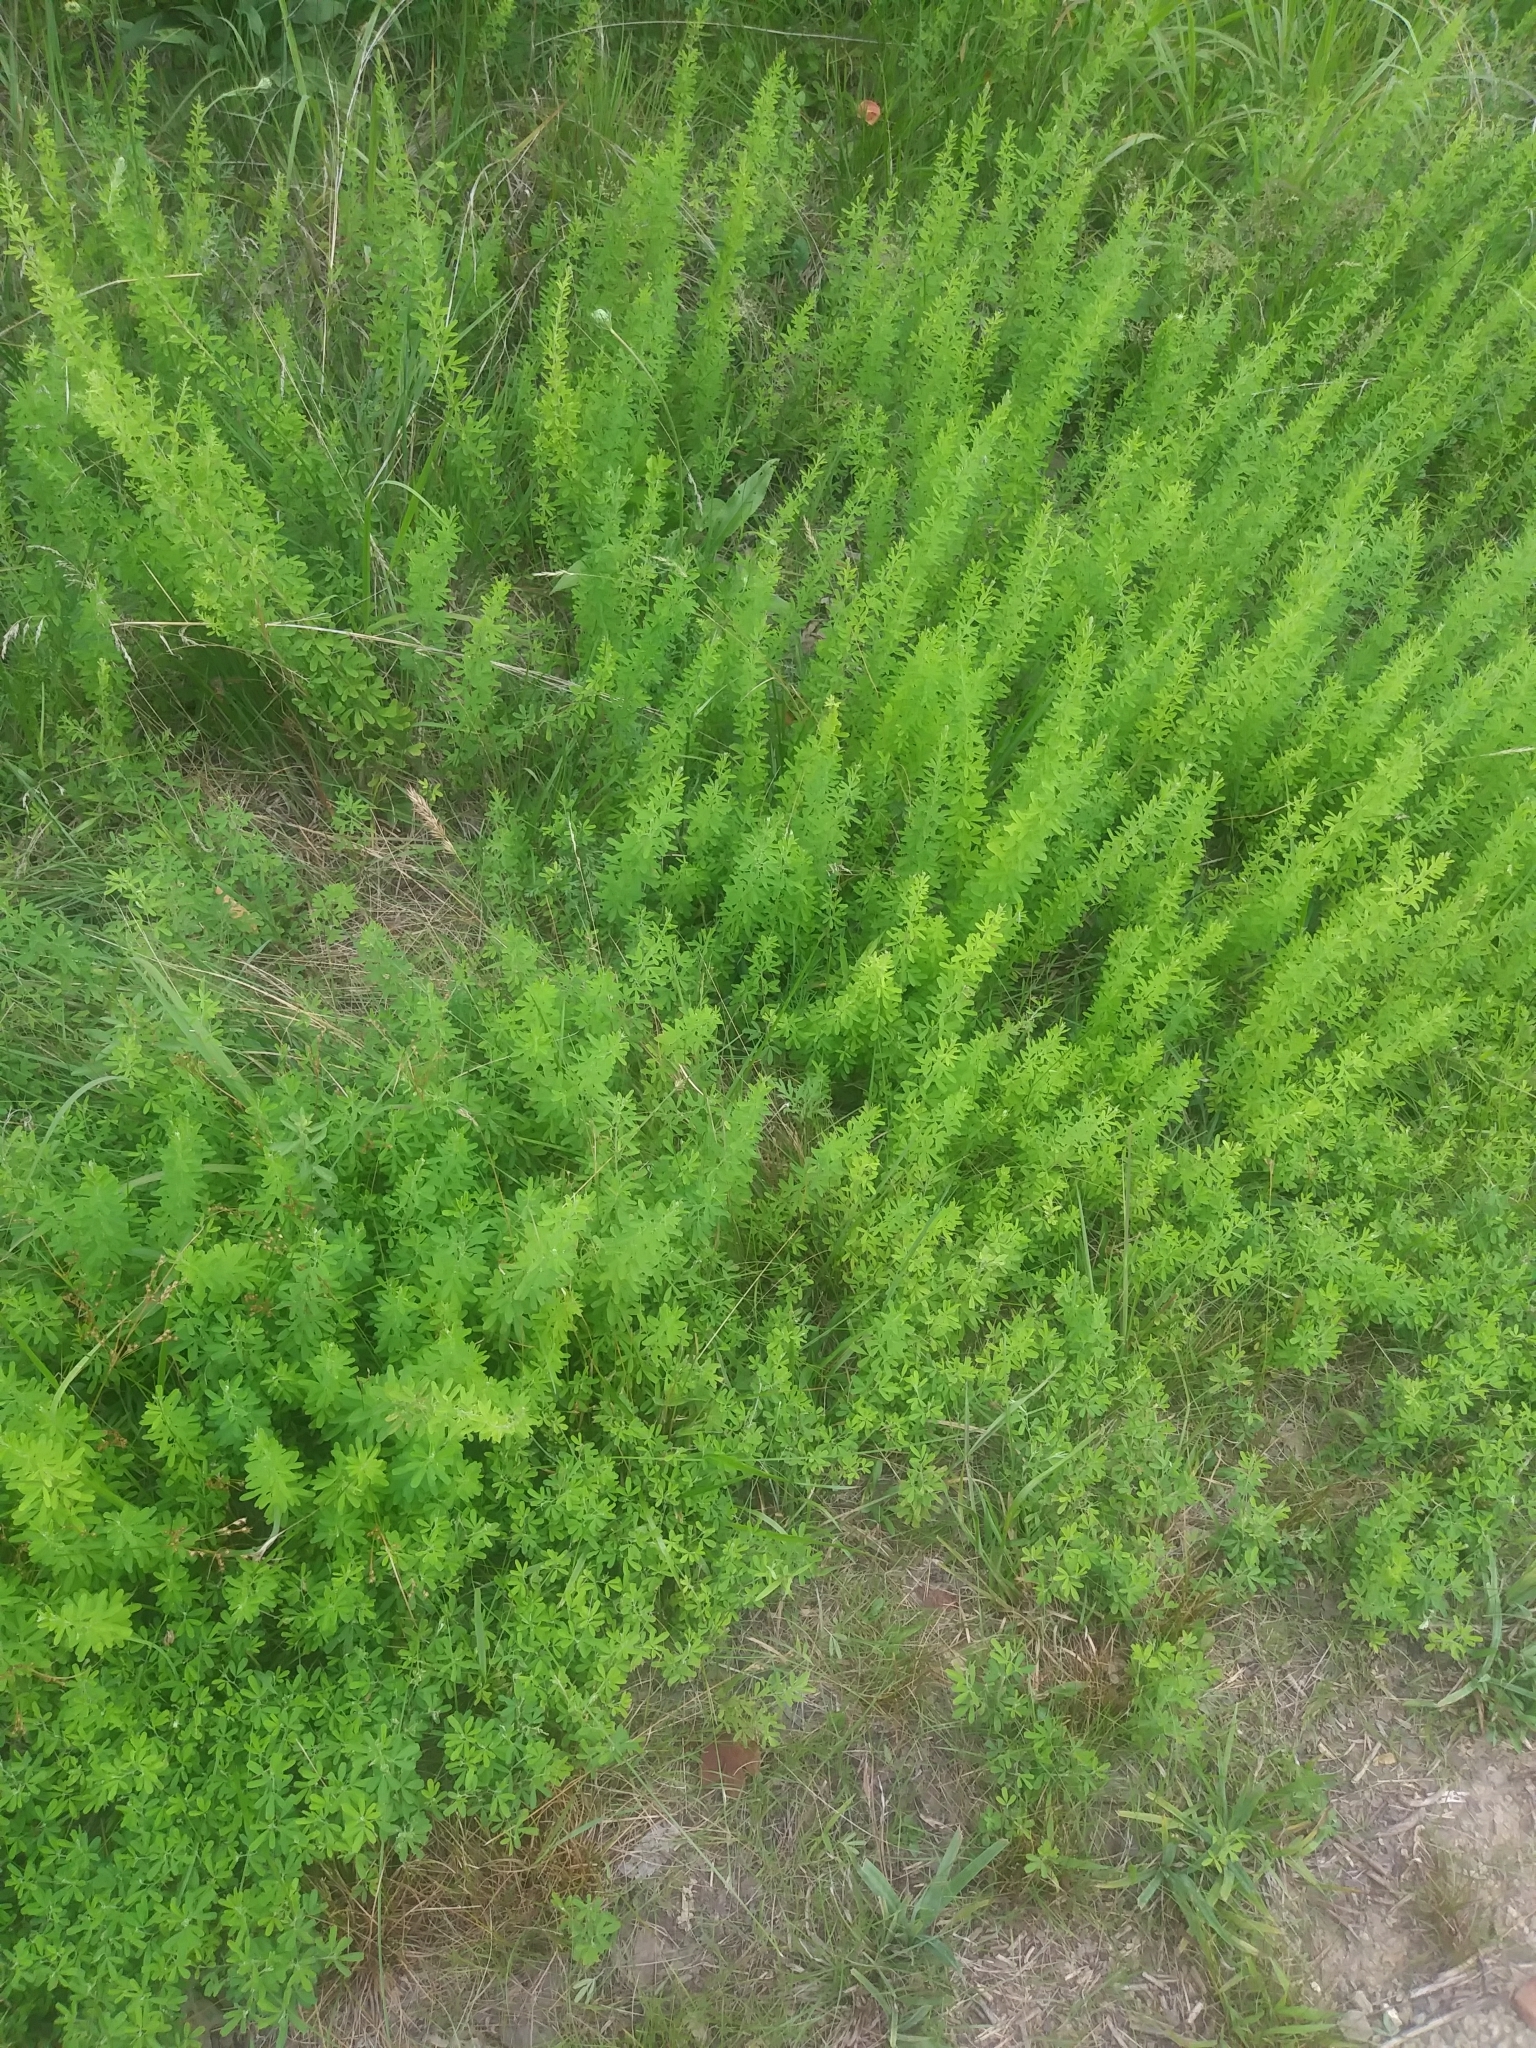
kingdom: Plantae
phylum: Tracheophyta
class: Magnoliopsida
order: Fabales
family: Fabaceae
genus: Lespedeza
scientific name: Lespedeza cuneata
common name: Chinese bush-clover
